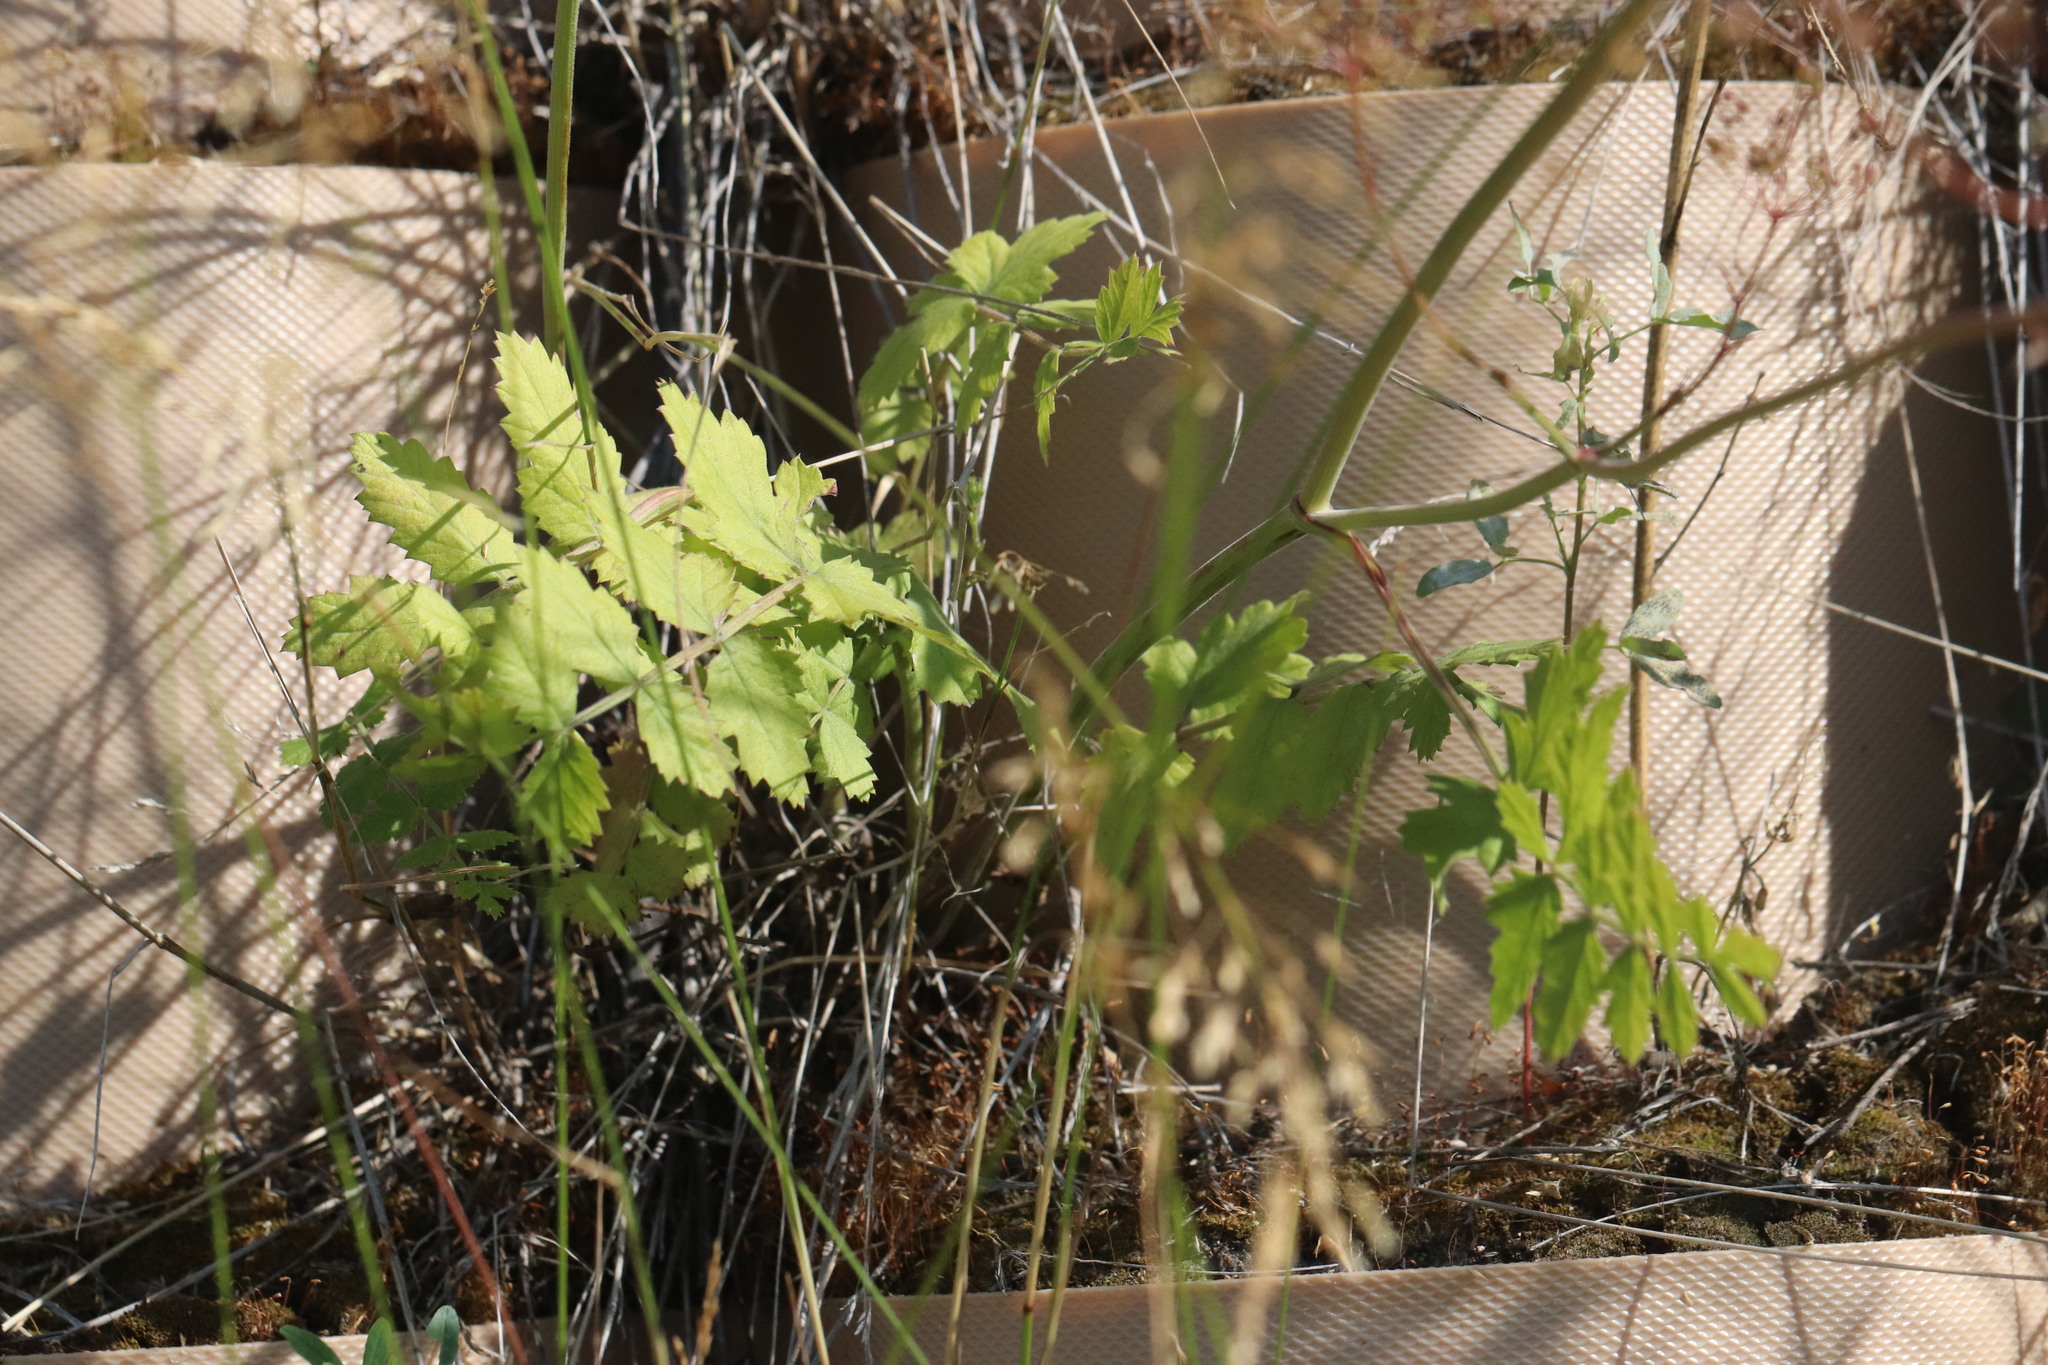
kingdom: Plantae
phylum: Tracheophyta
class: Magnoliopsida
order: Apiales
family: Apiaceae
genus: Pastinaca
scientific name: Pastinaca sativa
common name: Wild parsnip
